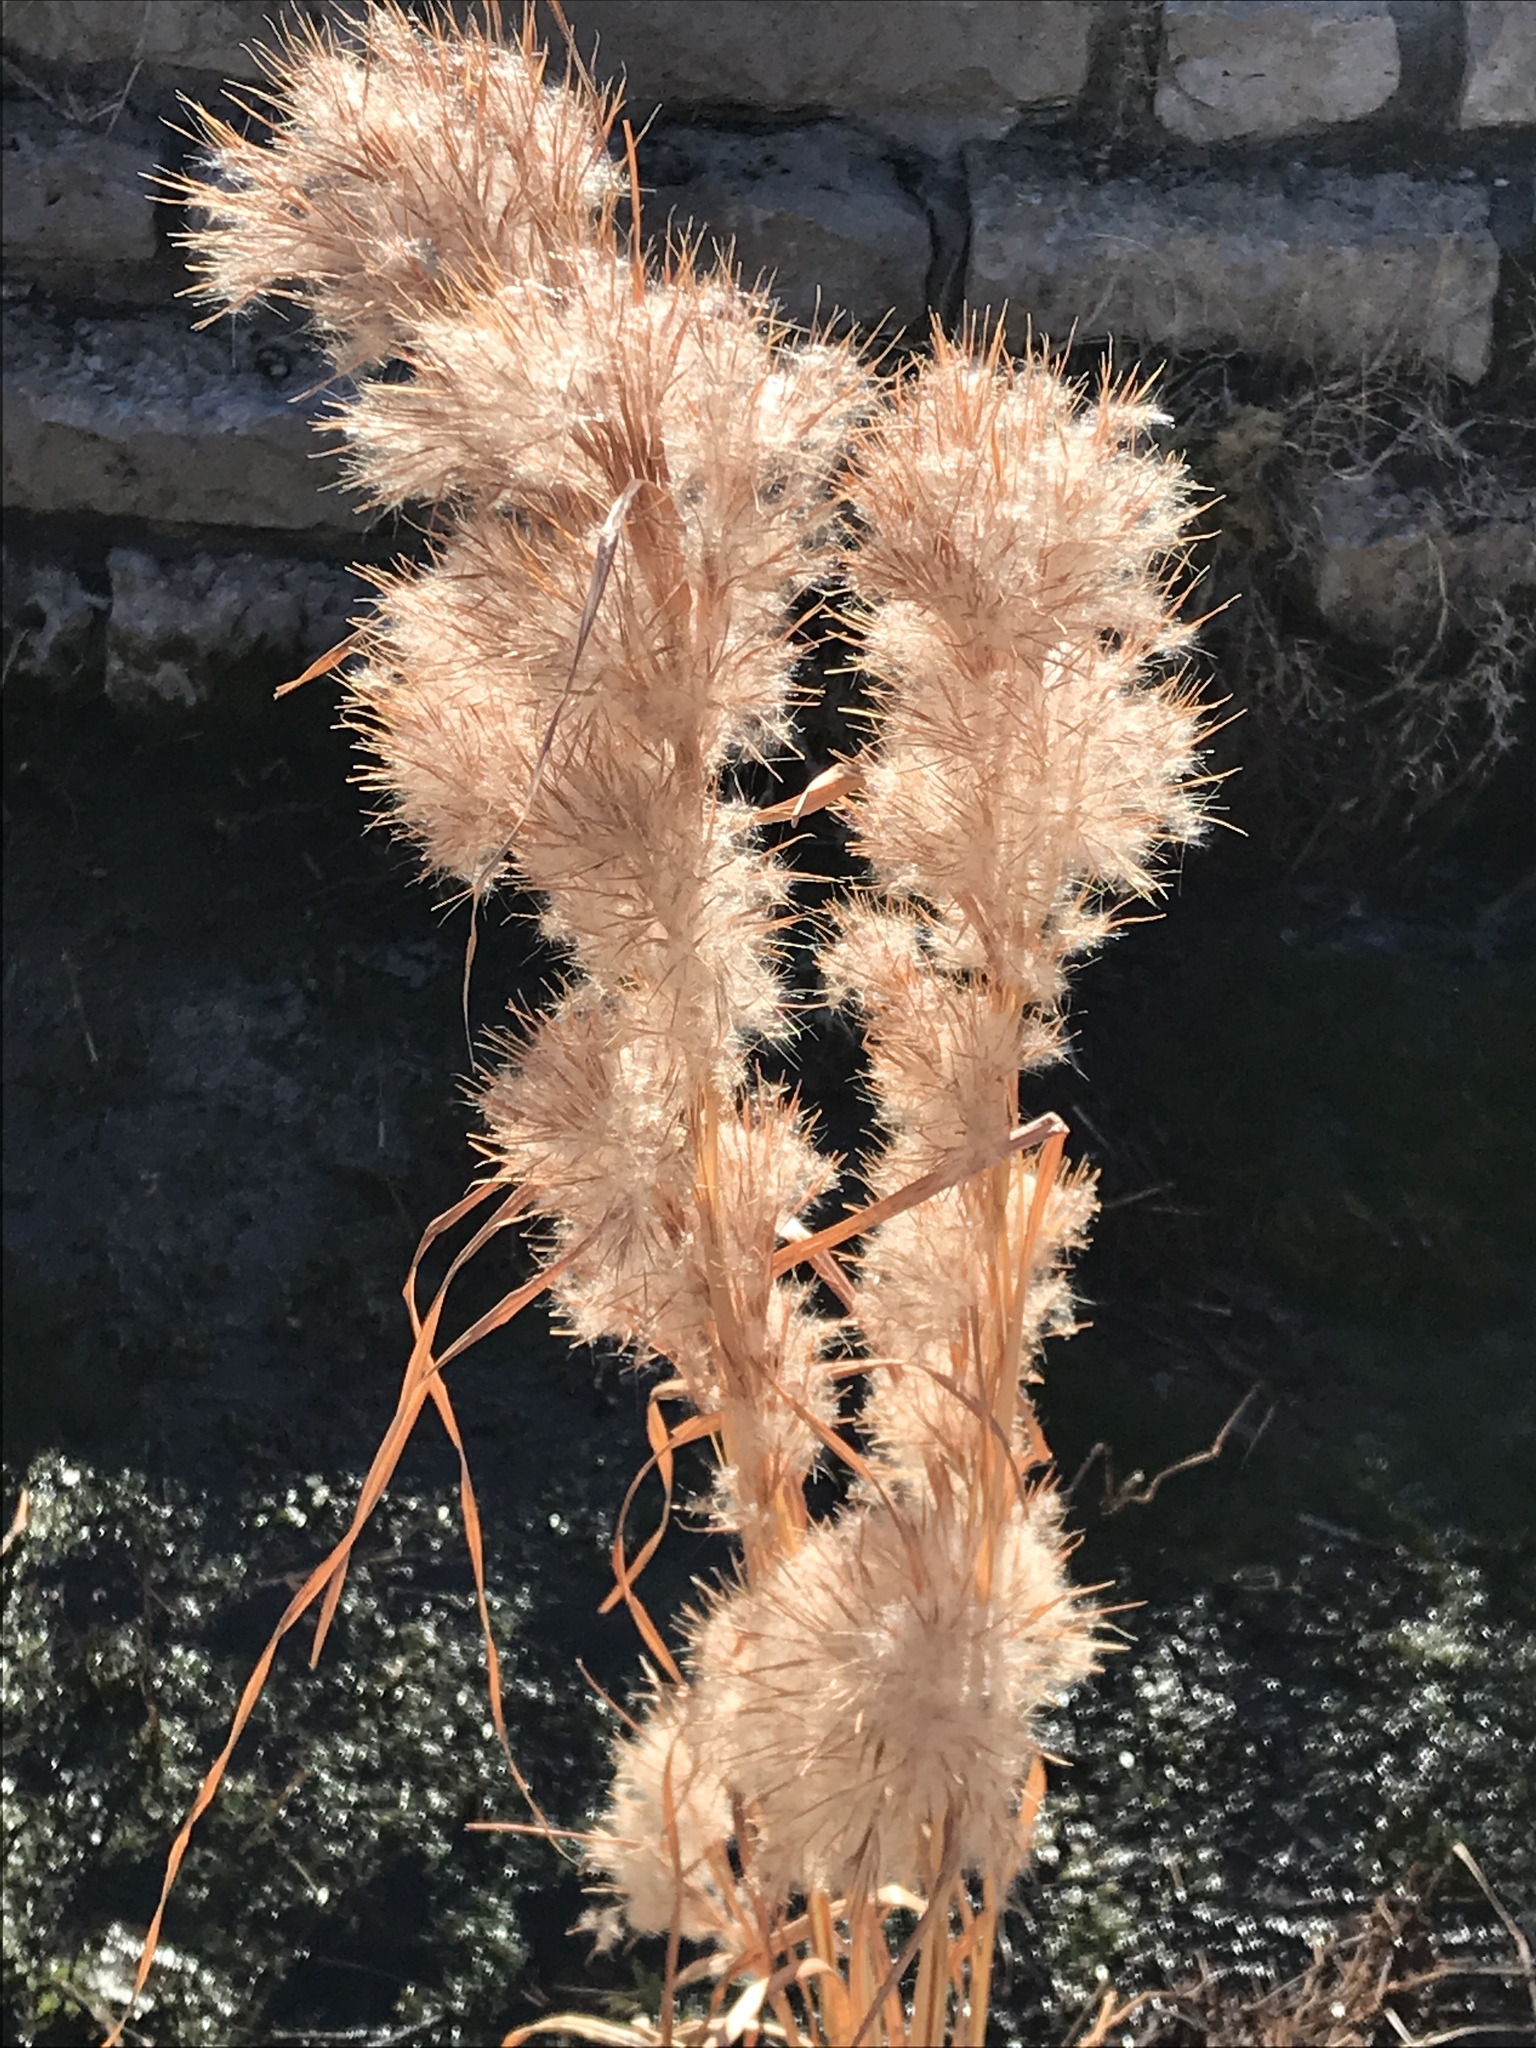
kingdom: Plantae
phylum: Tracheophyta
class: Liliopsida
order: Poales
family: Poaceae
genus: Andropogon
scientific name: Andropogon tenuispatheus
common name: Bushy bluestem
